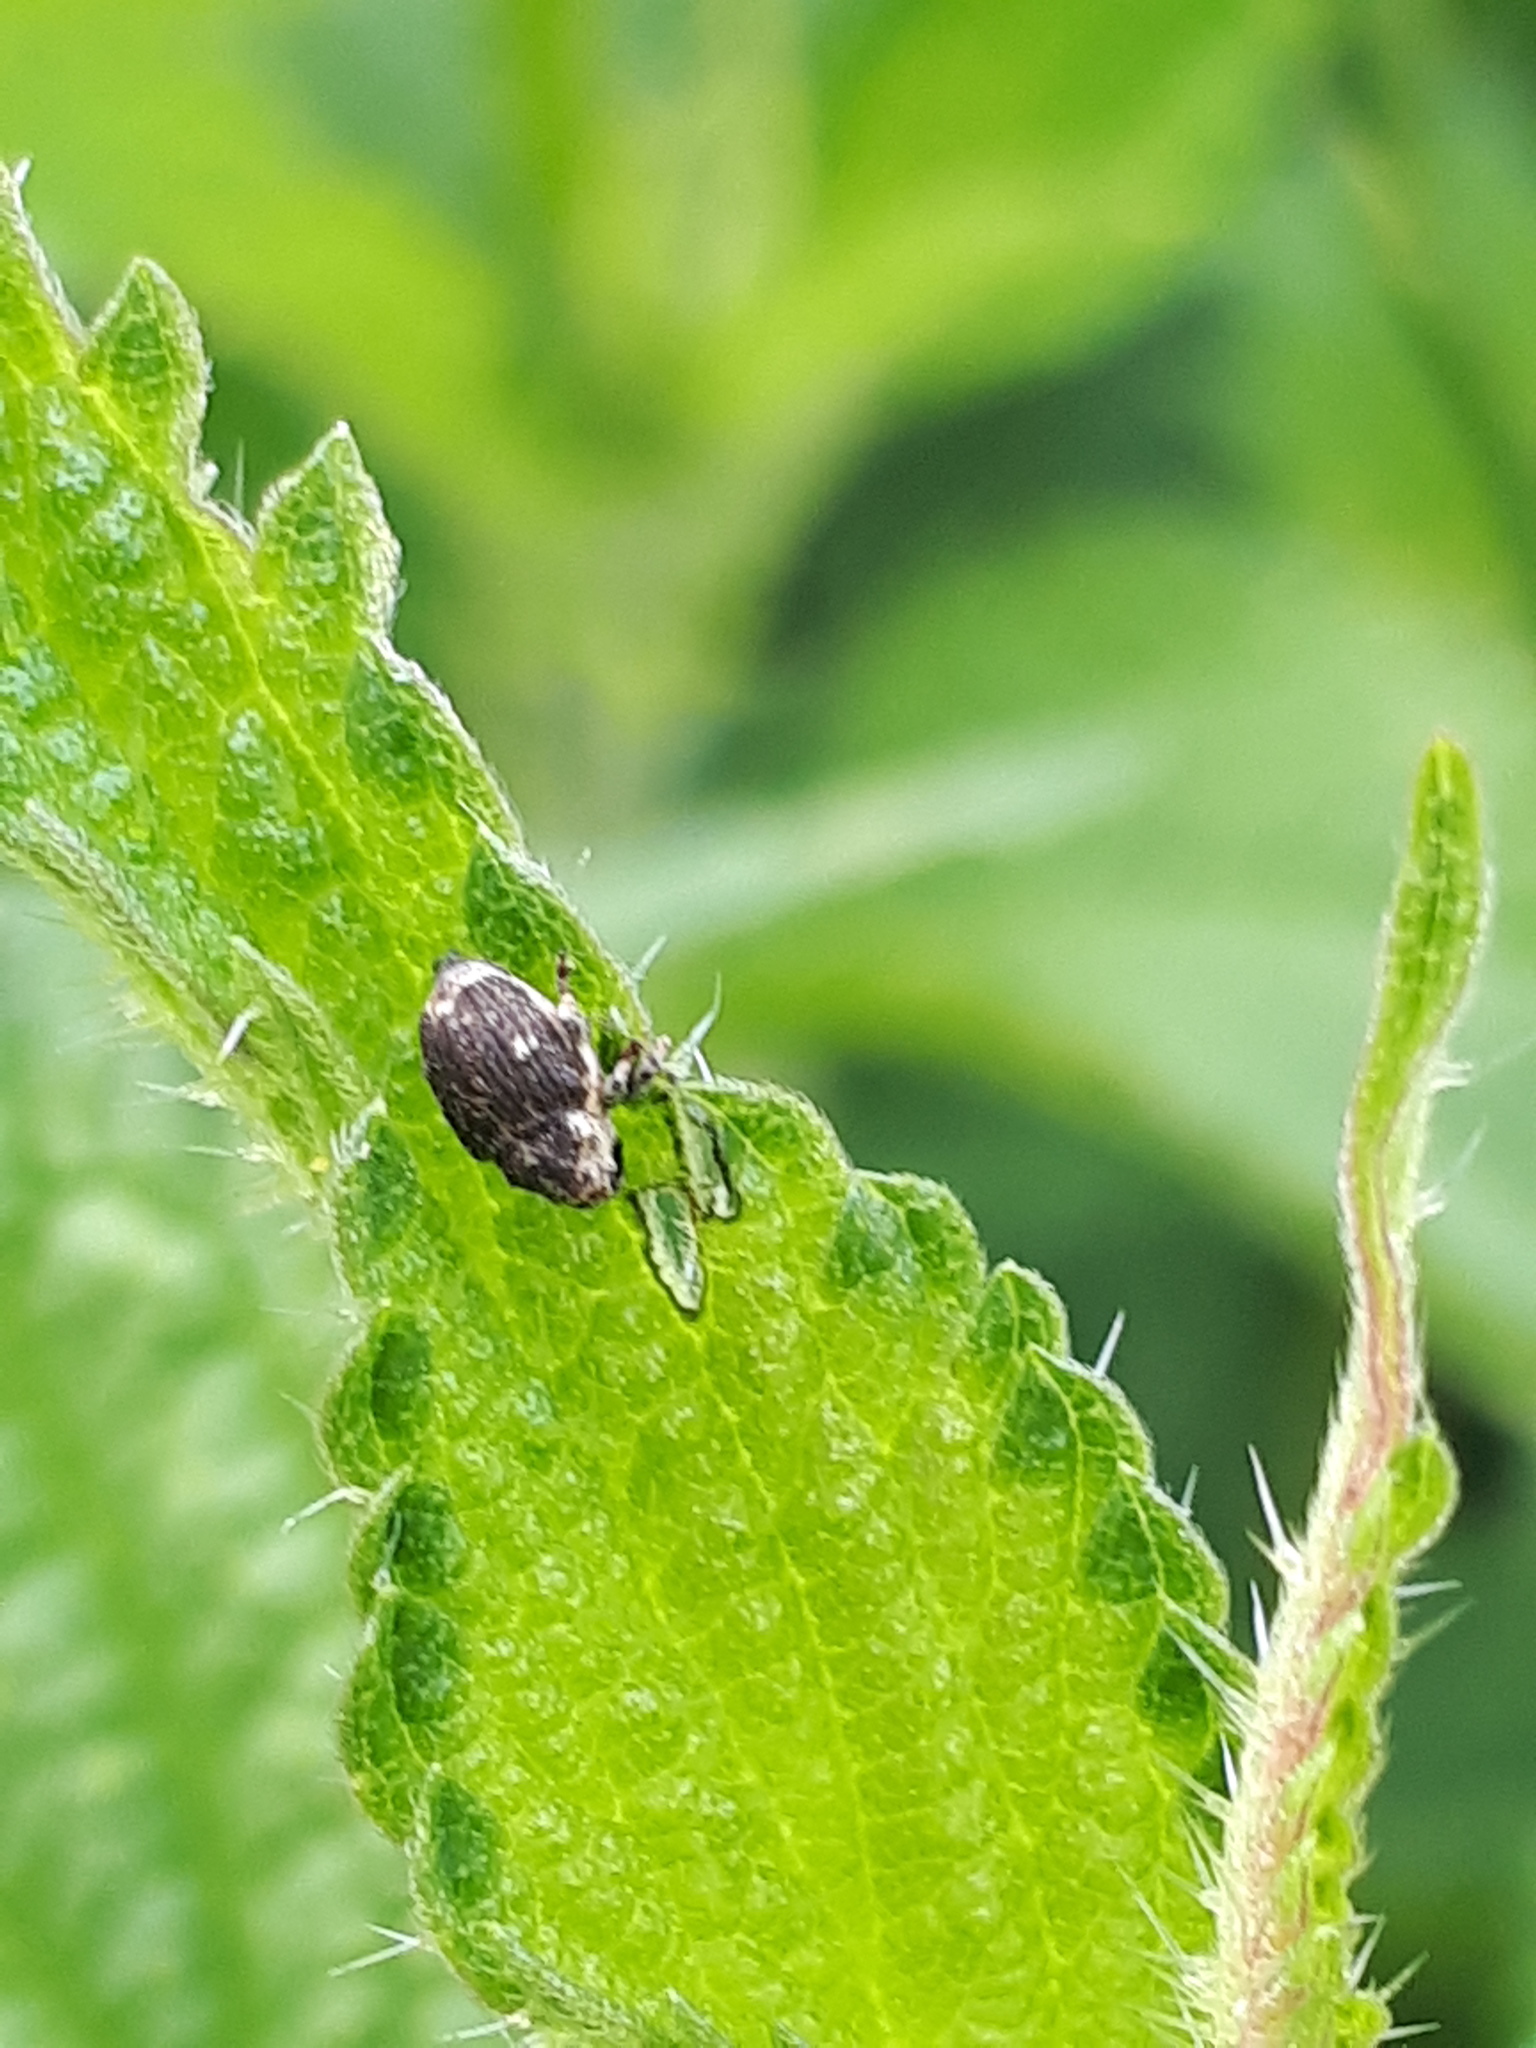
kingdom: Animalia
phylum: Arthropoda
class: Insecta
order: Coleoptera
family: Curculionidae
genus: Nedyus
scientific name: Nedyus quadrimaculatus
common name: Small nettle weevil
